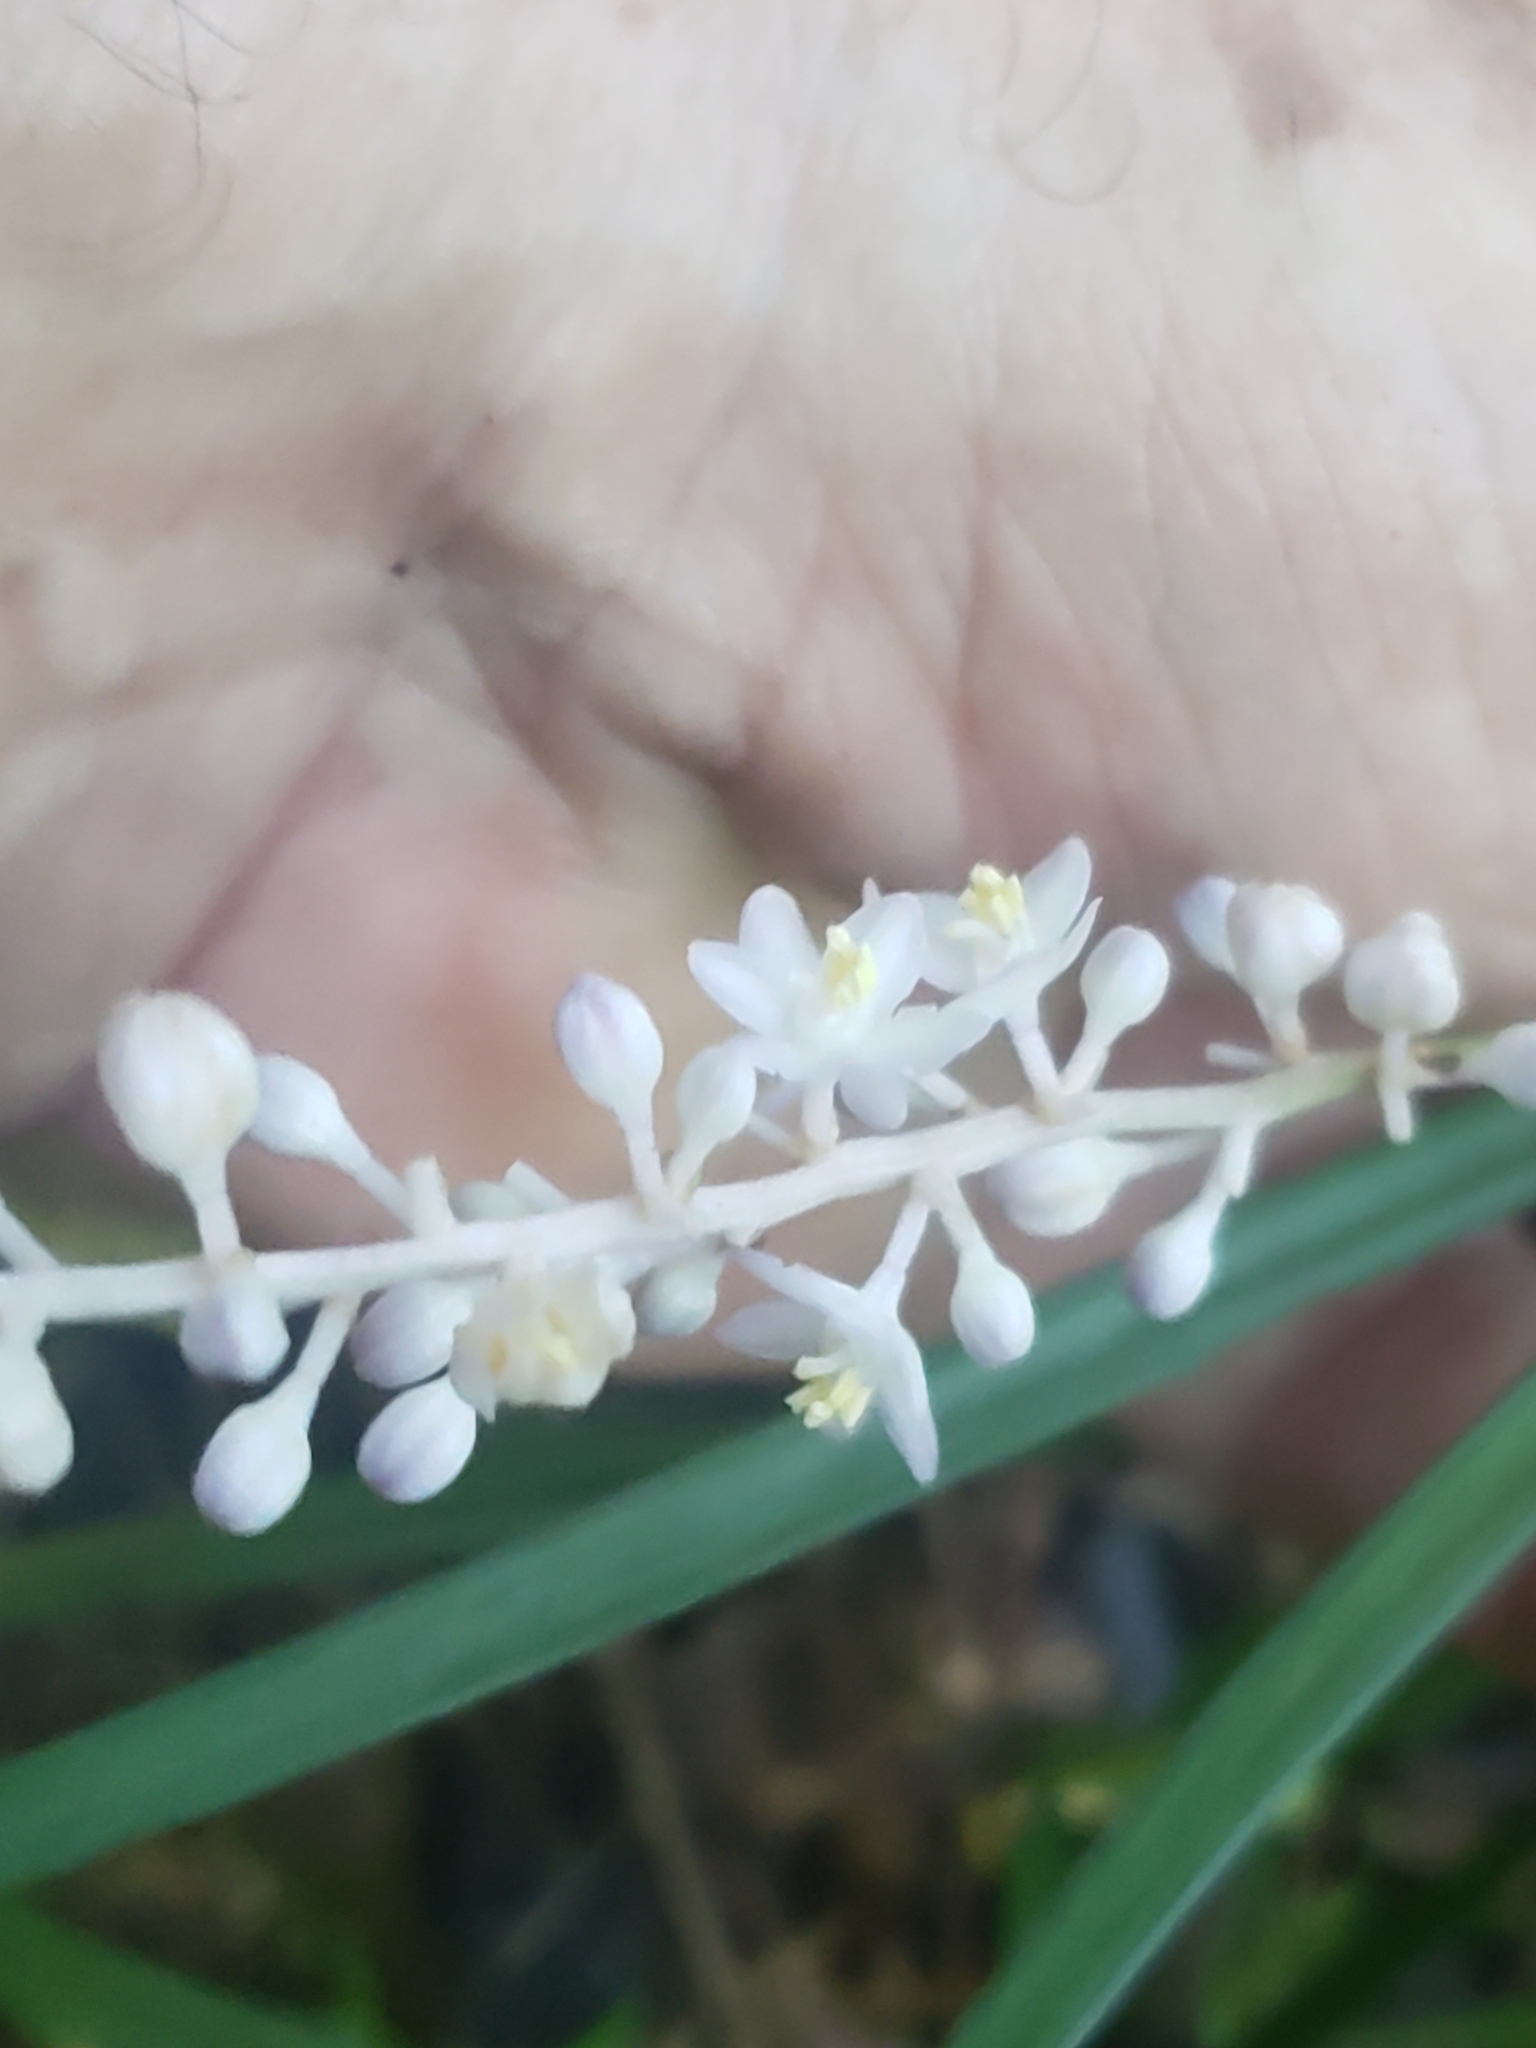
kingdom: Plantae
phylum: Tracheophyta
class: Liliopsida
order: Asparagales
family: Asparagaceae
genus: Liriope
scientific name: Liriope spicata
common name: Creeping liriope
